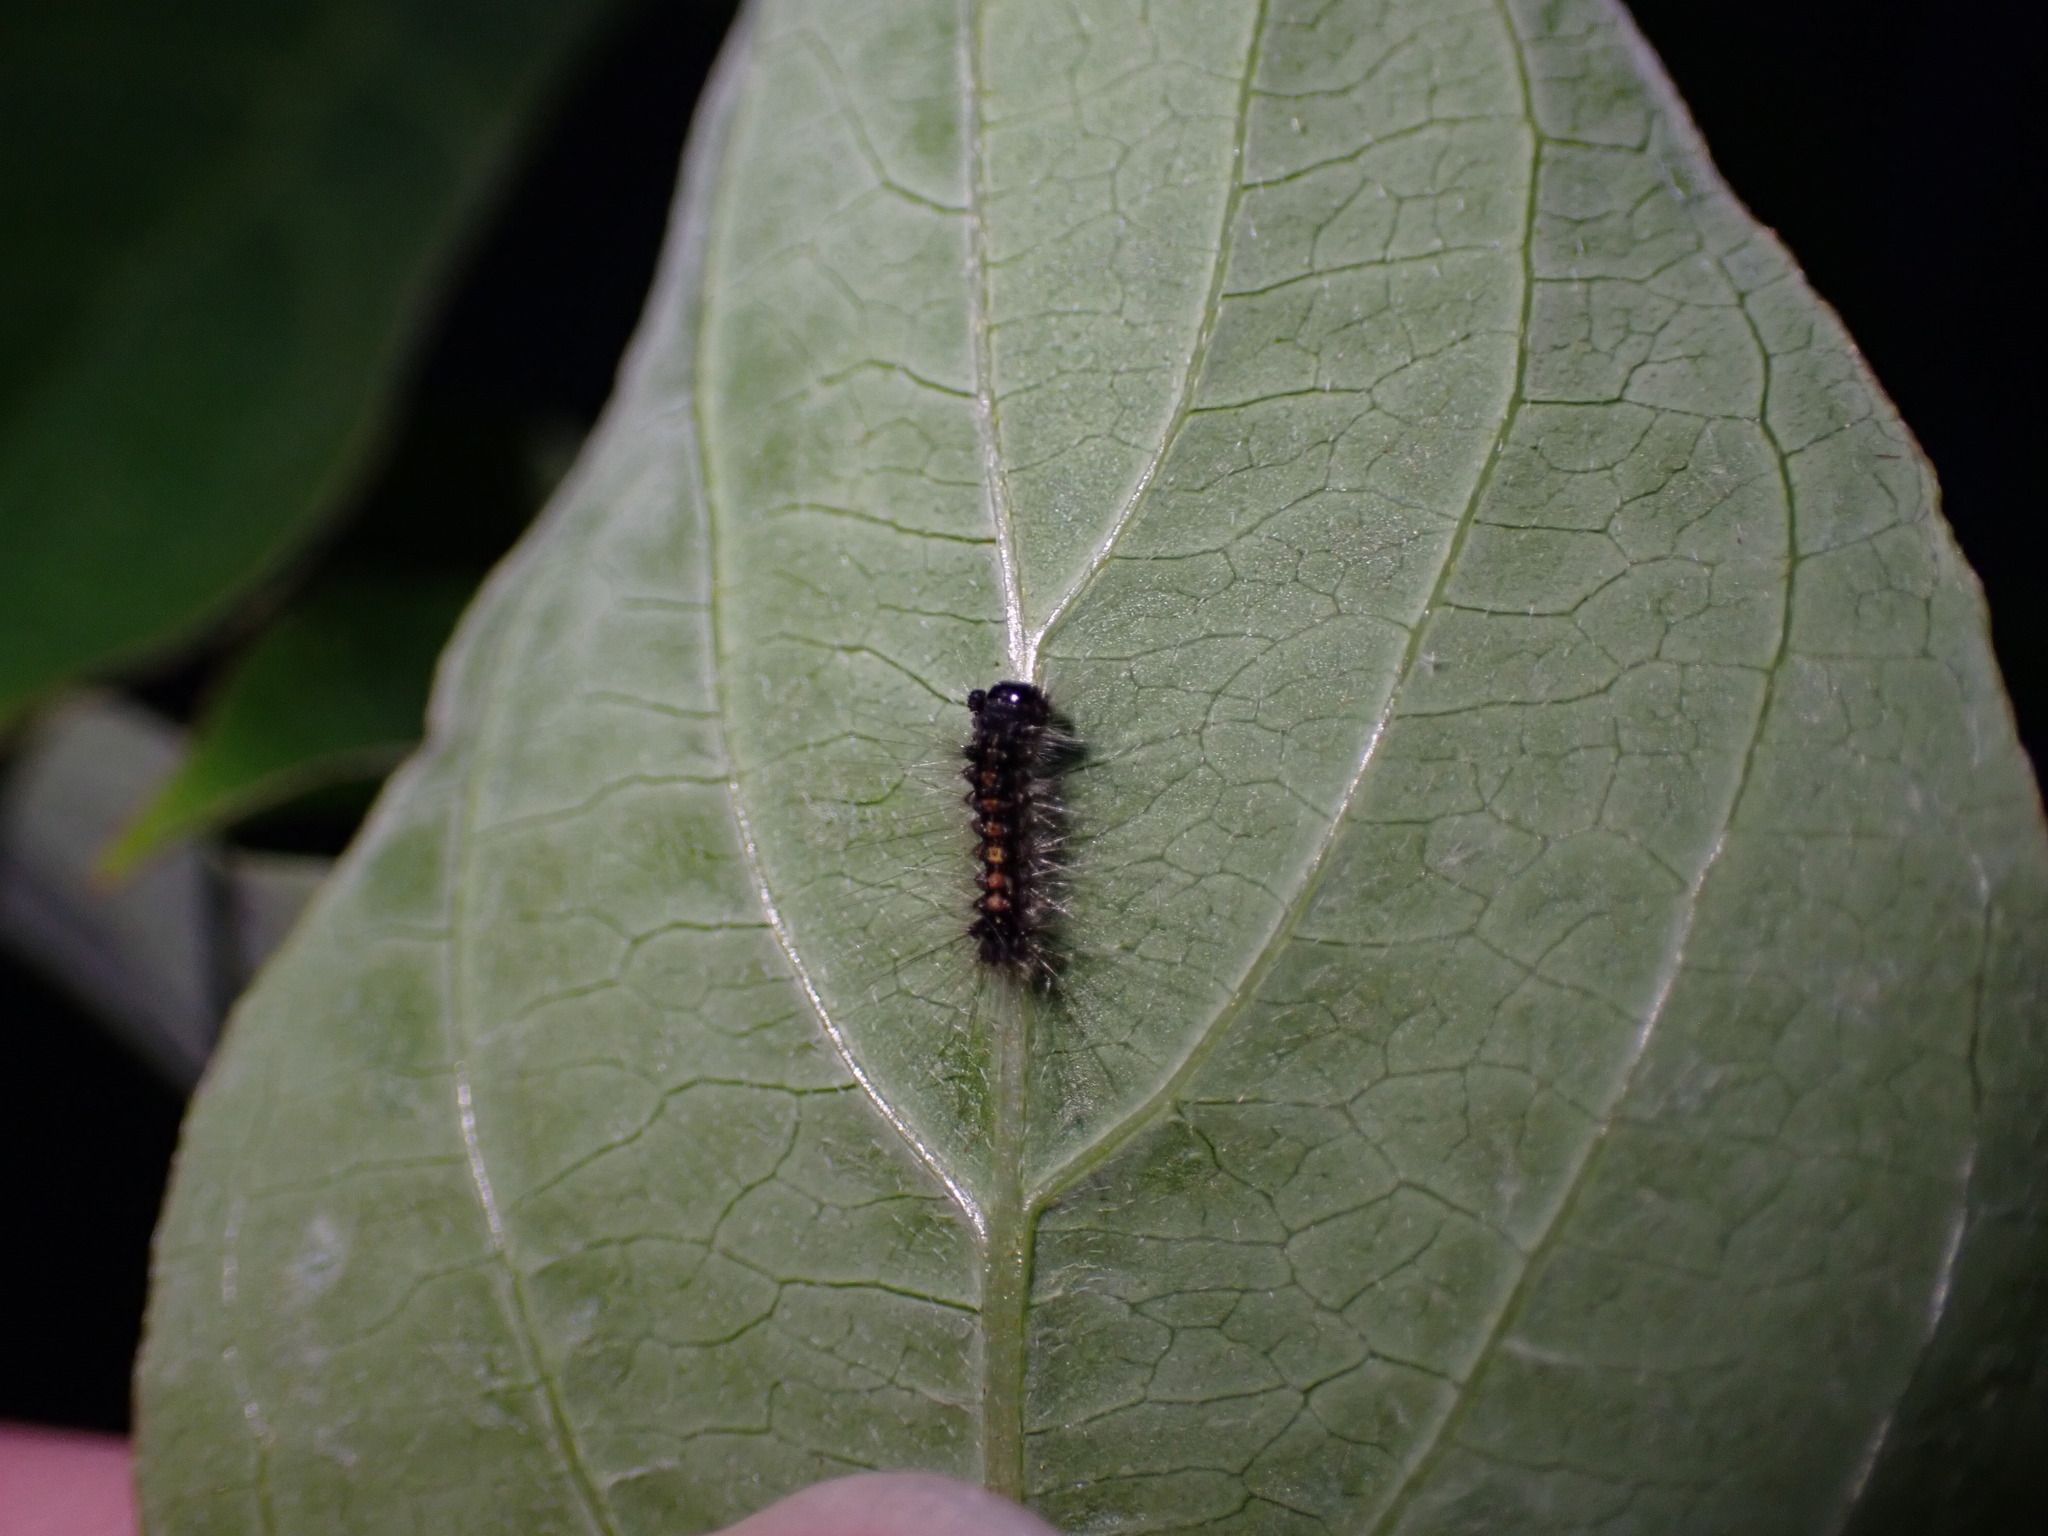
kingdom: Animalia
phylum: Arthropoda
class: Insecta
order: Lepidoptera
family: Erebidae
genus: Lymantria
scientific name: Lymantria dispar
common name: Gypsy moth
